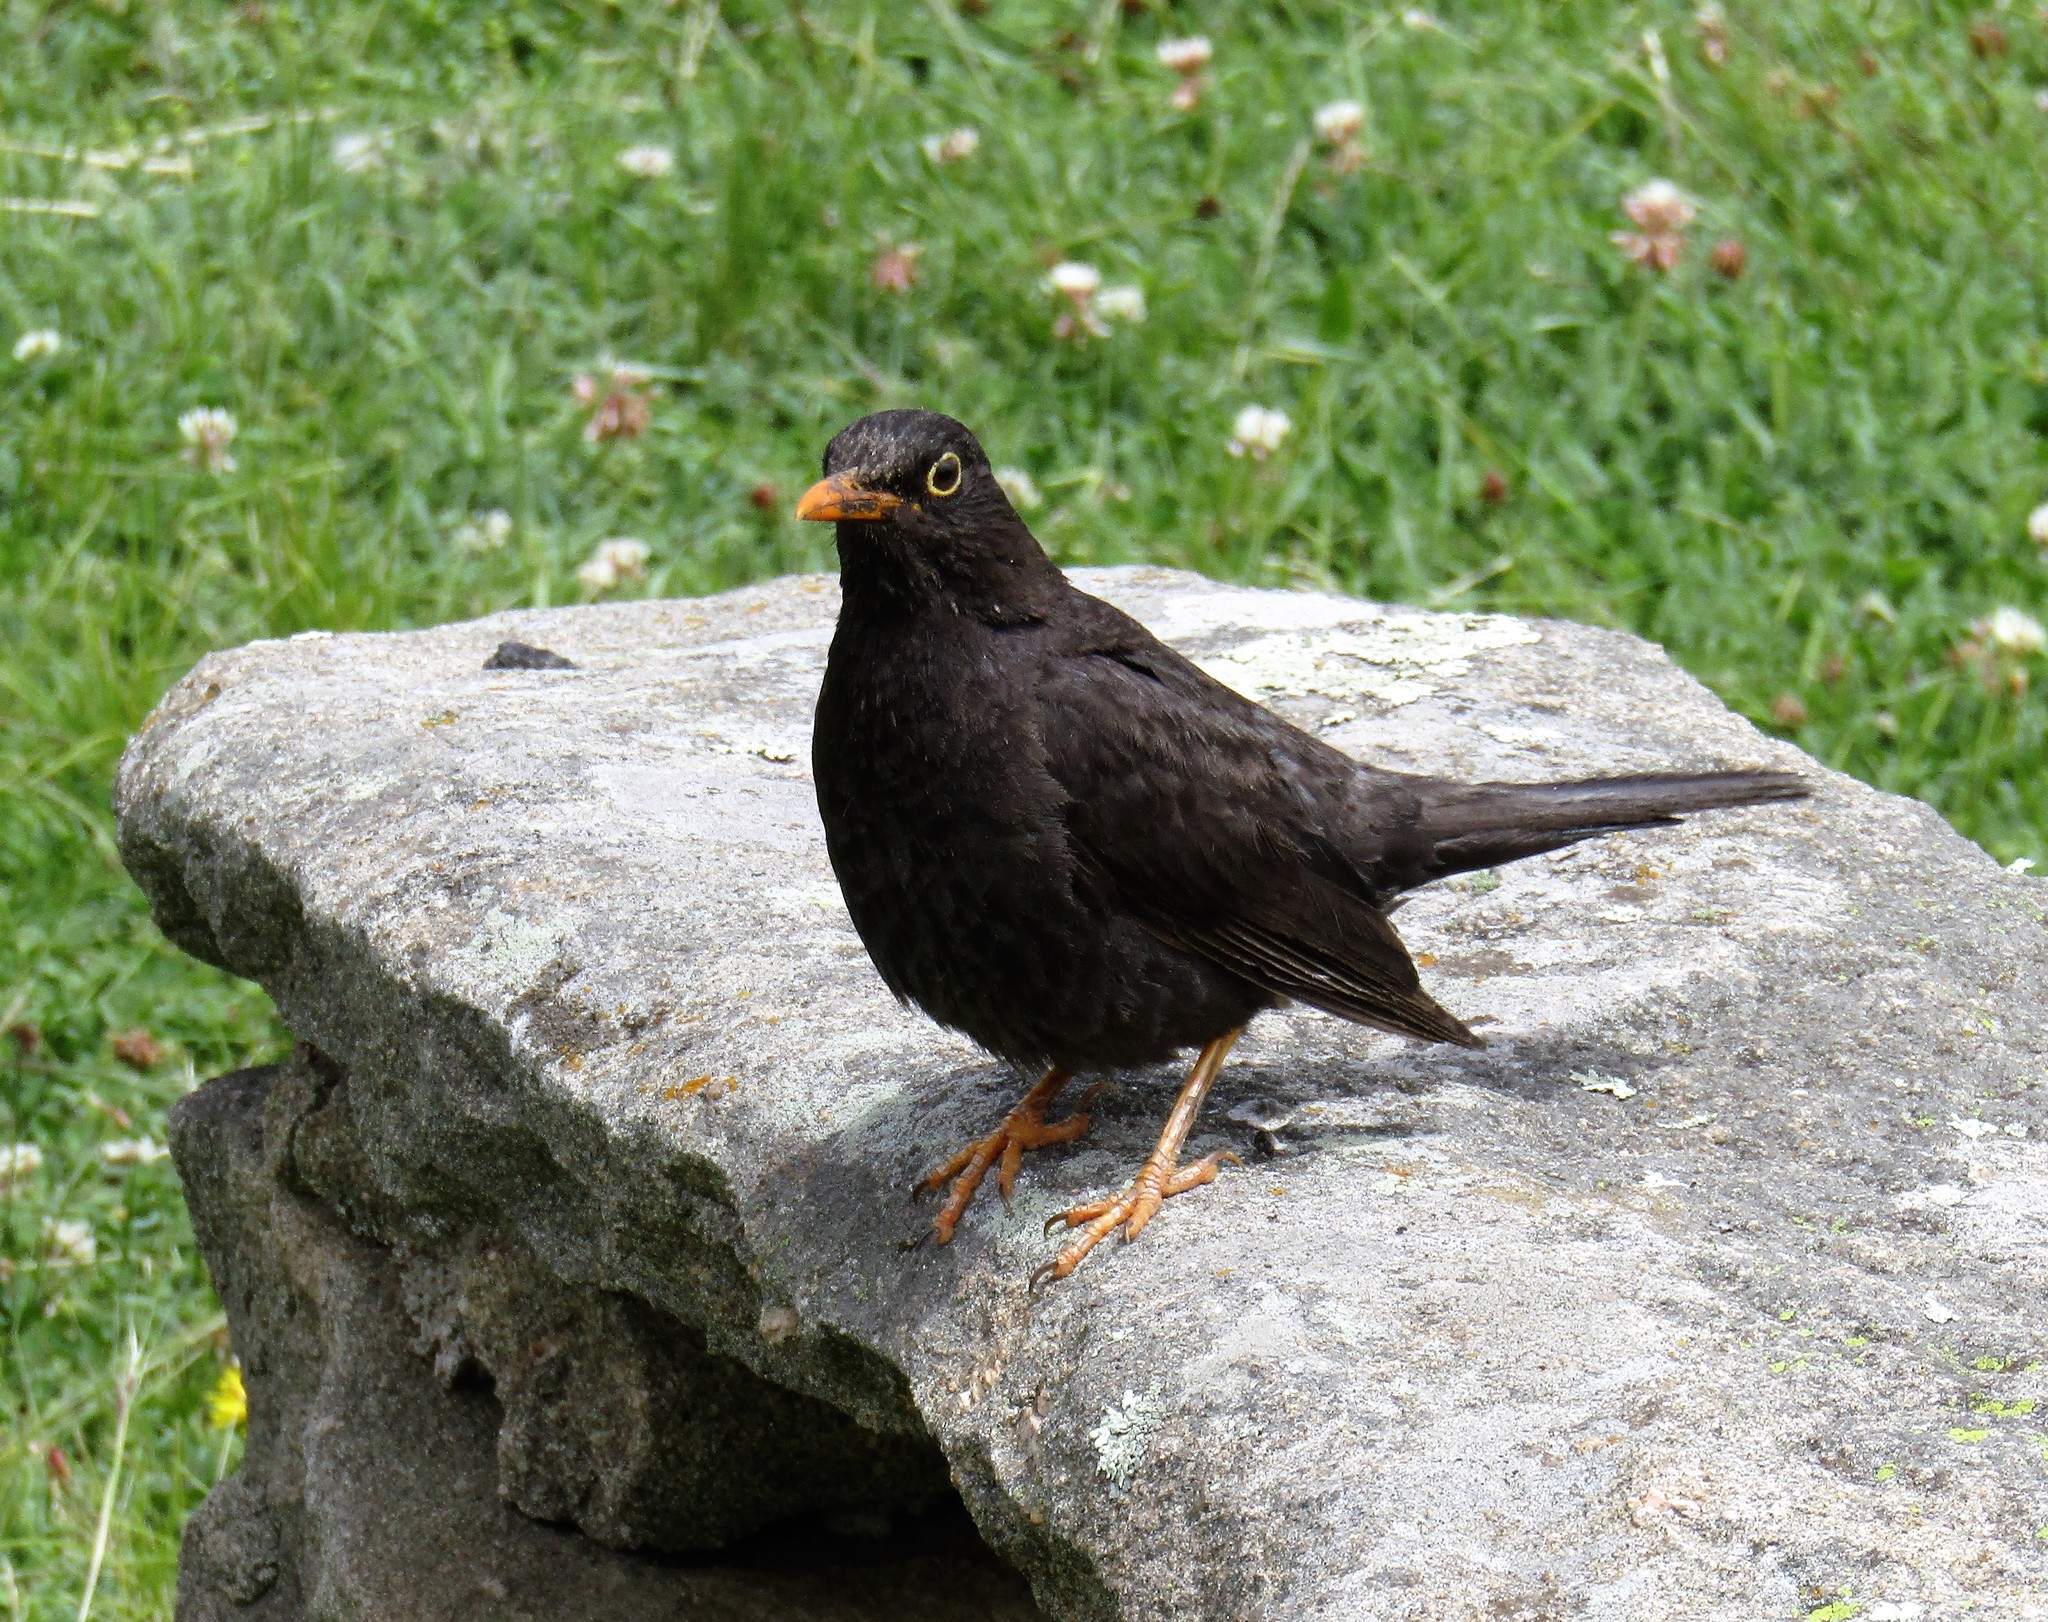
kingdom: Animalia
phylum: Chordata
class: Aves
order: Passeriformes
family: Turdidae
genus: Turdus
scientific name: Turdus chiguanco
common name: Chiguanco thrush
